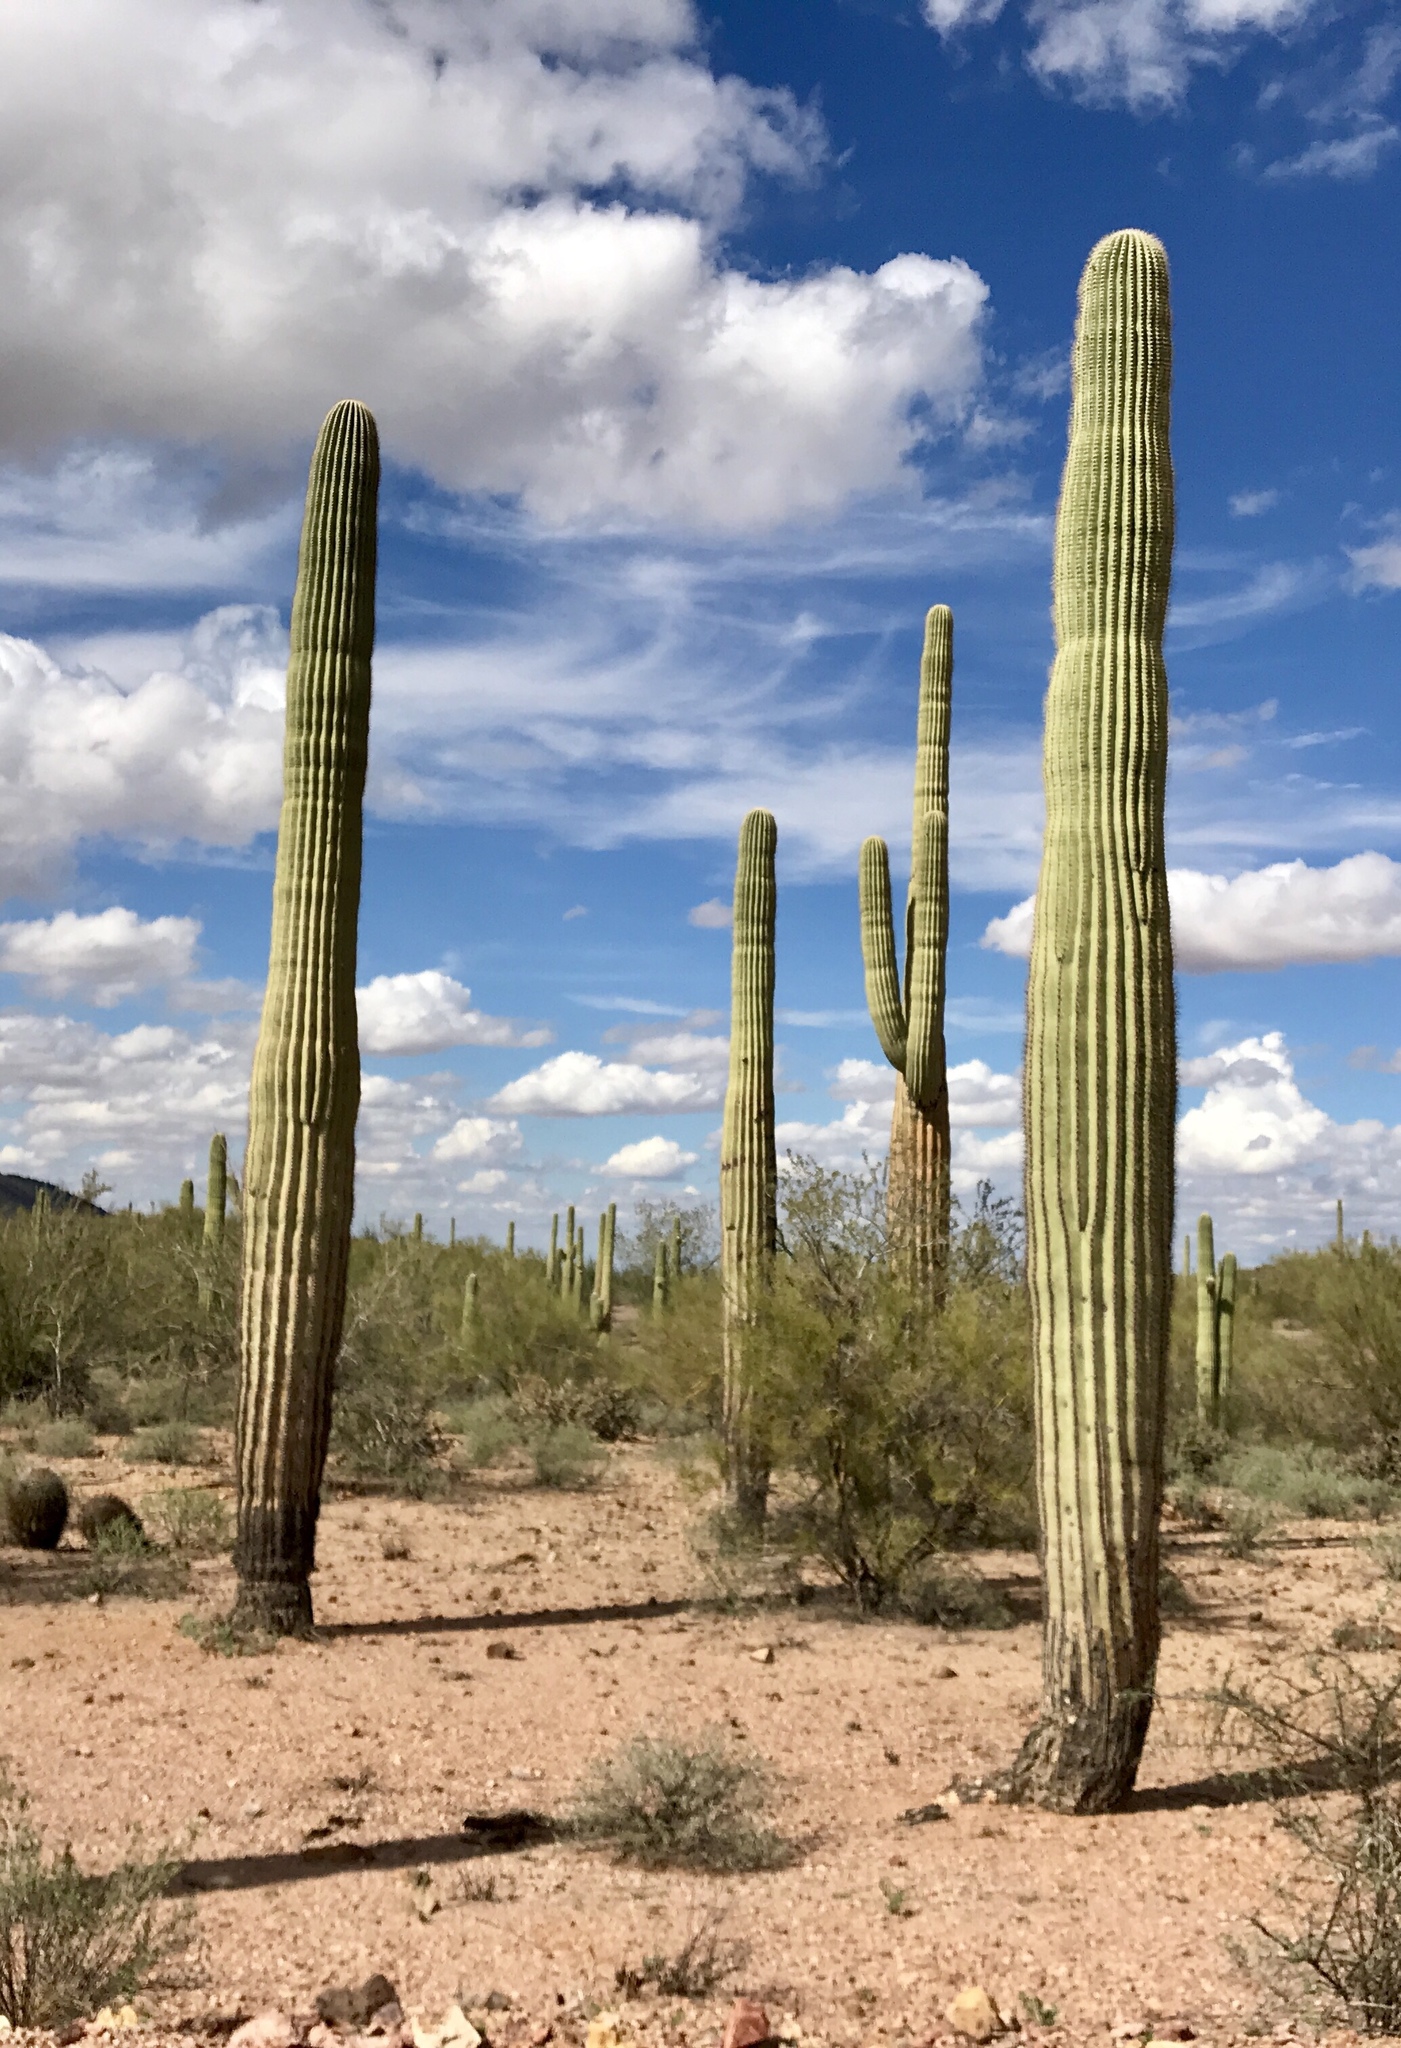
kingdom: Plantae
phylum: Tracheophyta
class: Magnoliopsida
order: Caryophyllales
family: Cactaceae
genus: Carnegiea
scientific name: Carnegiea gigantea
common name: Saguaro
